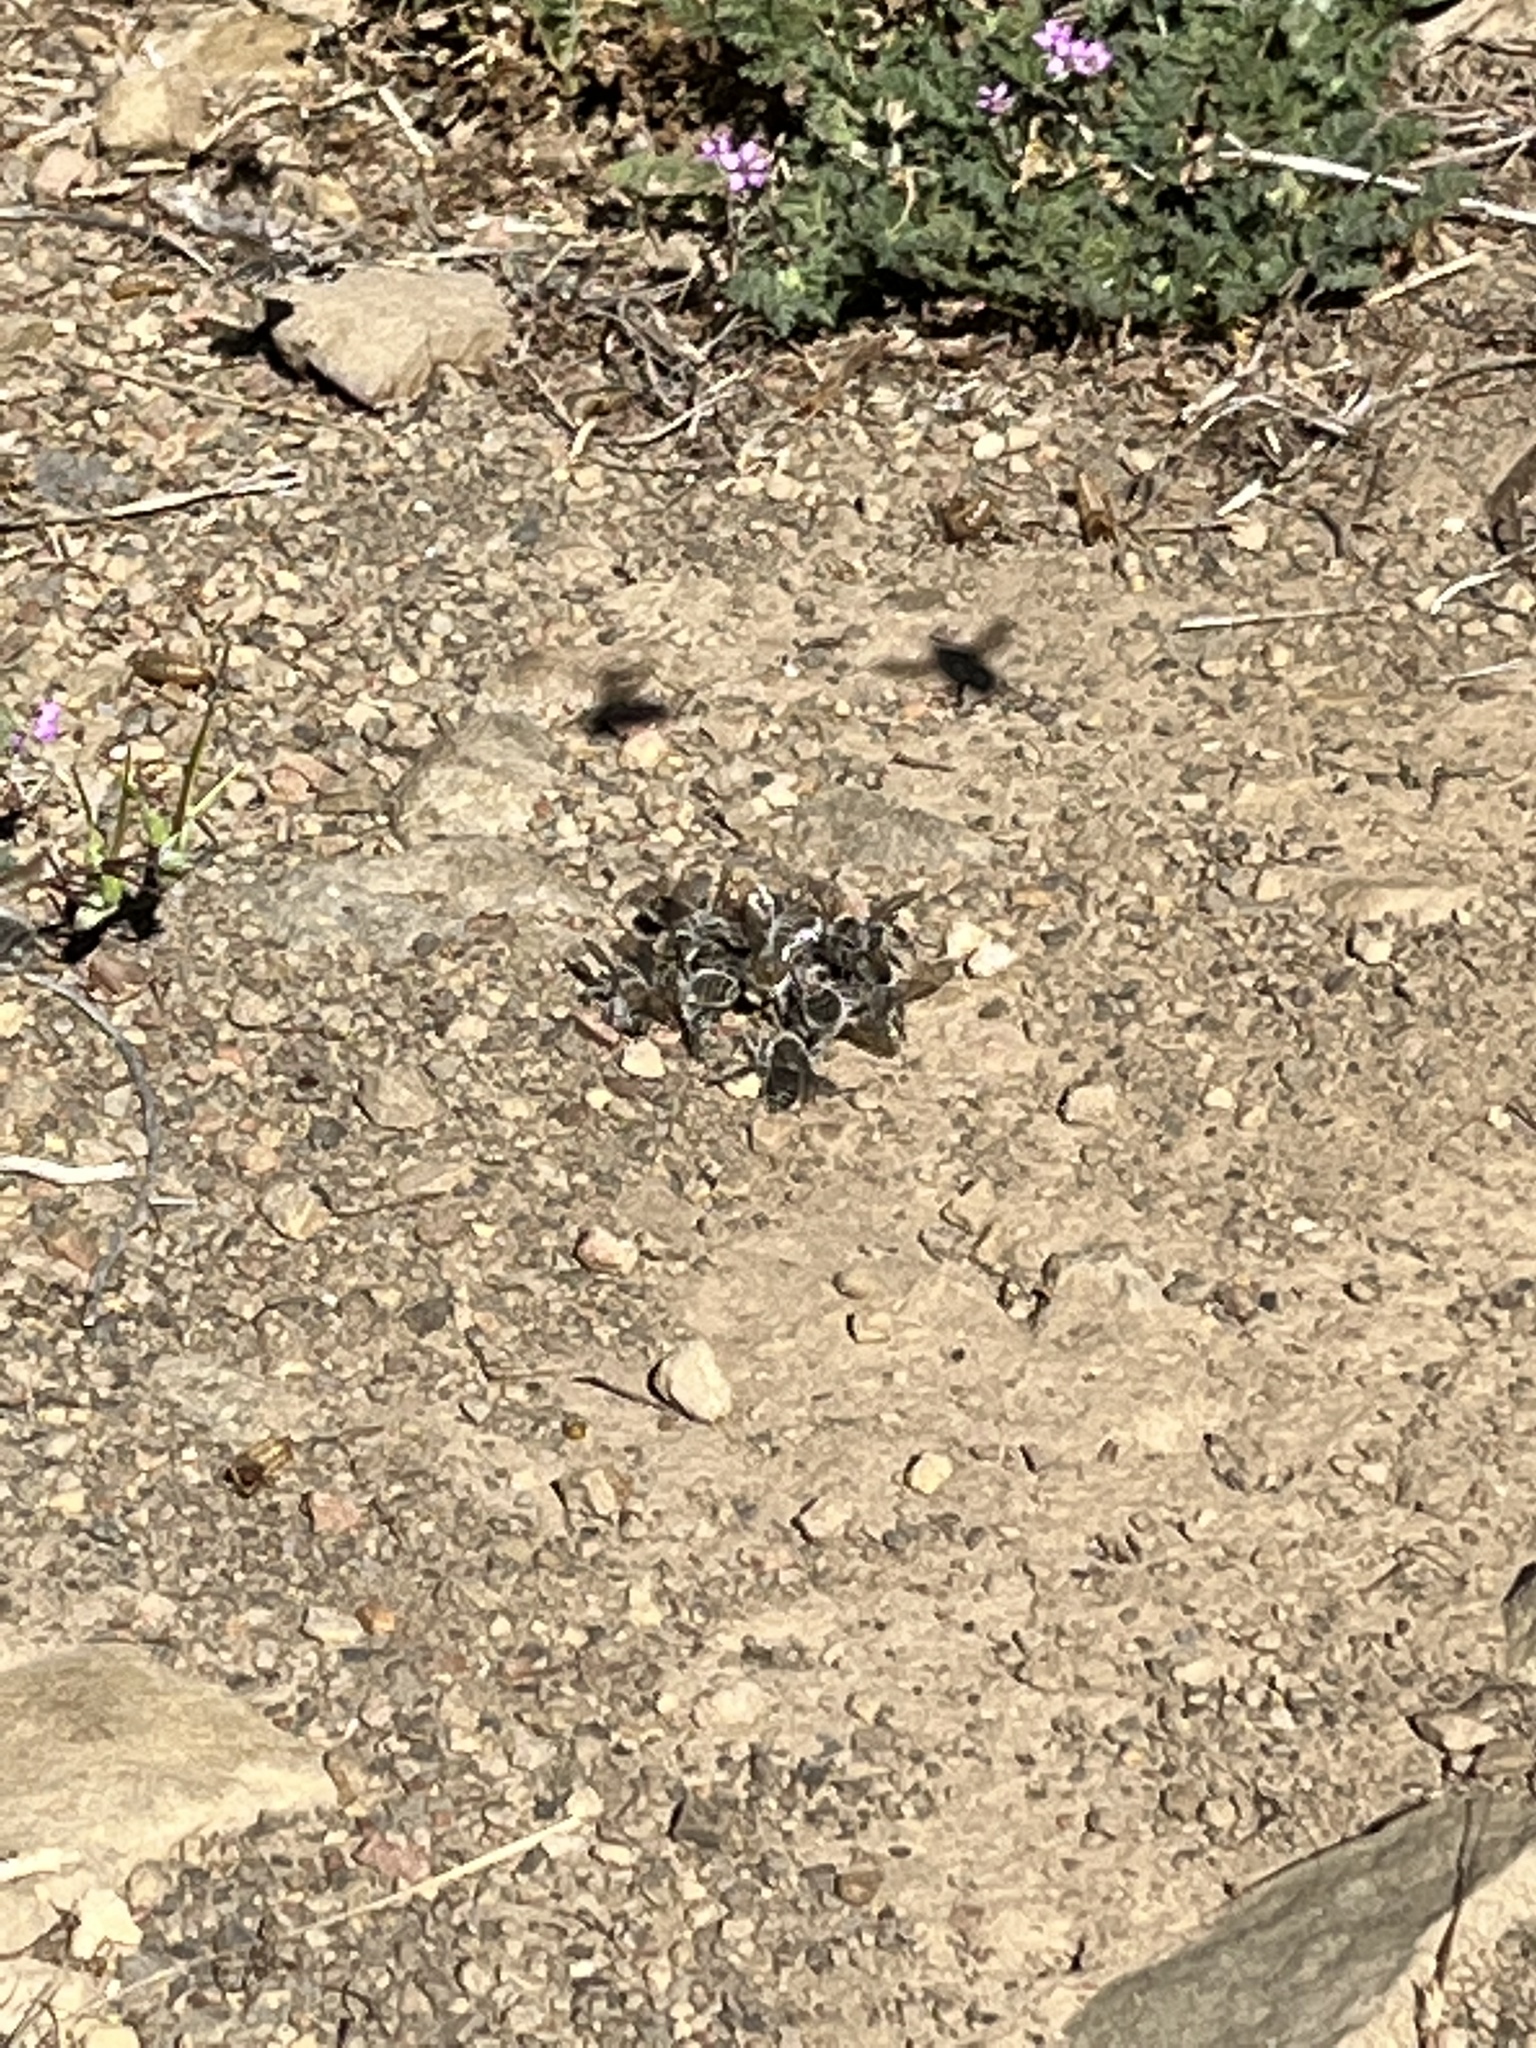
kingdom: Animalia
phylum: Arthropoda
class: Insecta
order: Hymenoptera
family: Apidae
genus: Diadasia
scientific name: Diadasia bituberculata
